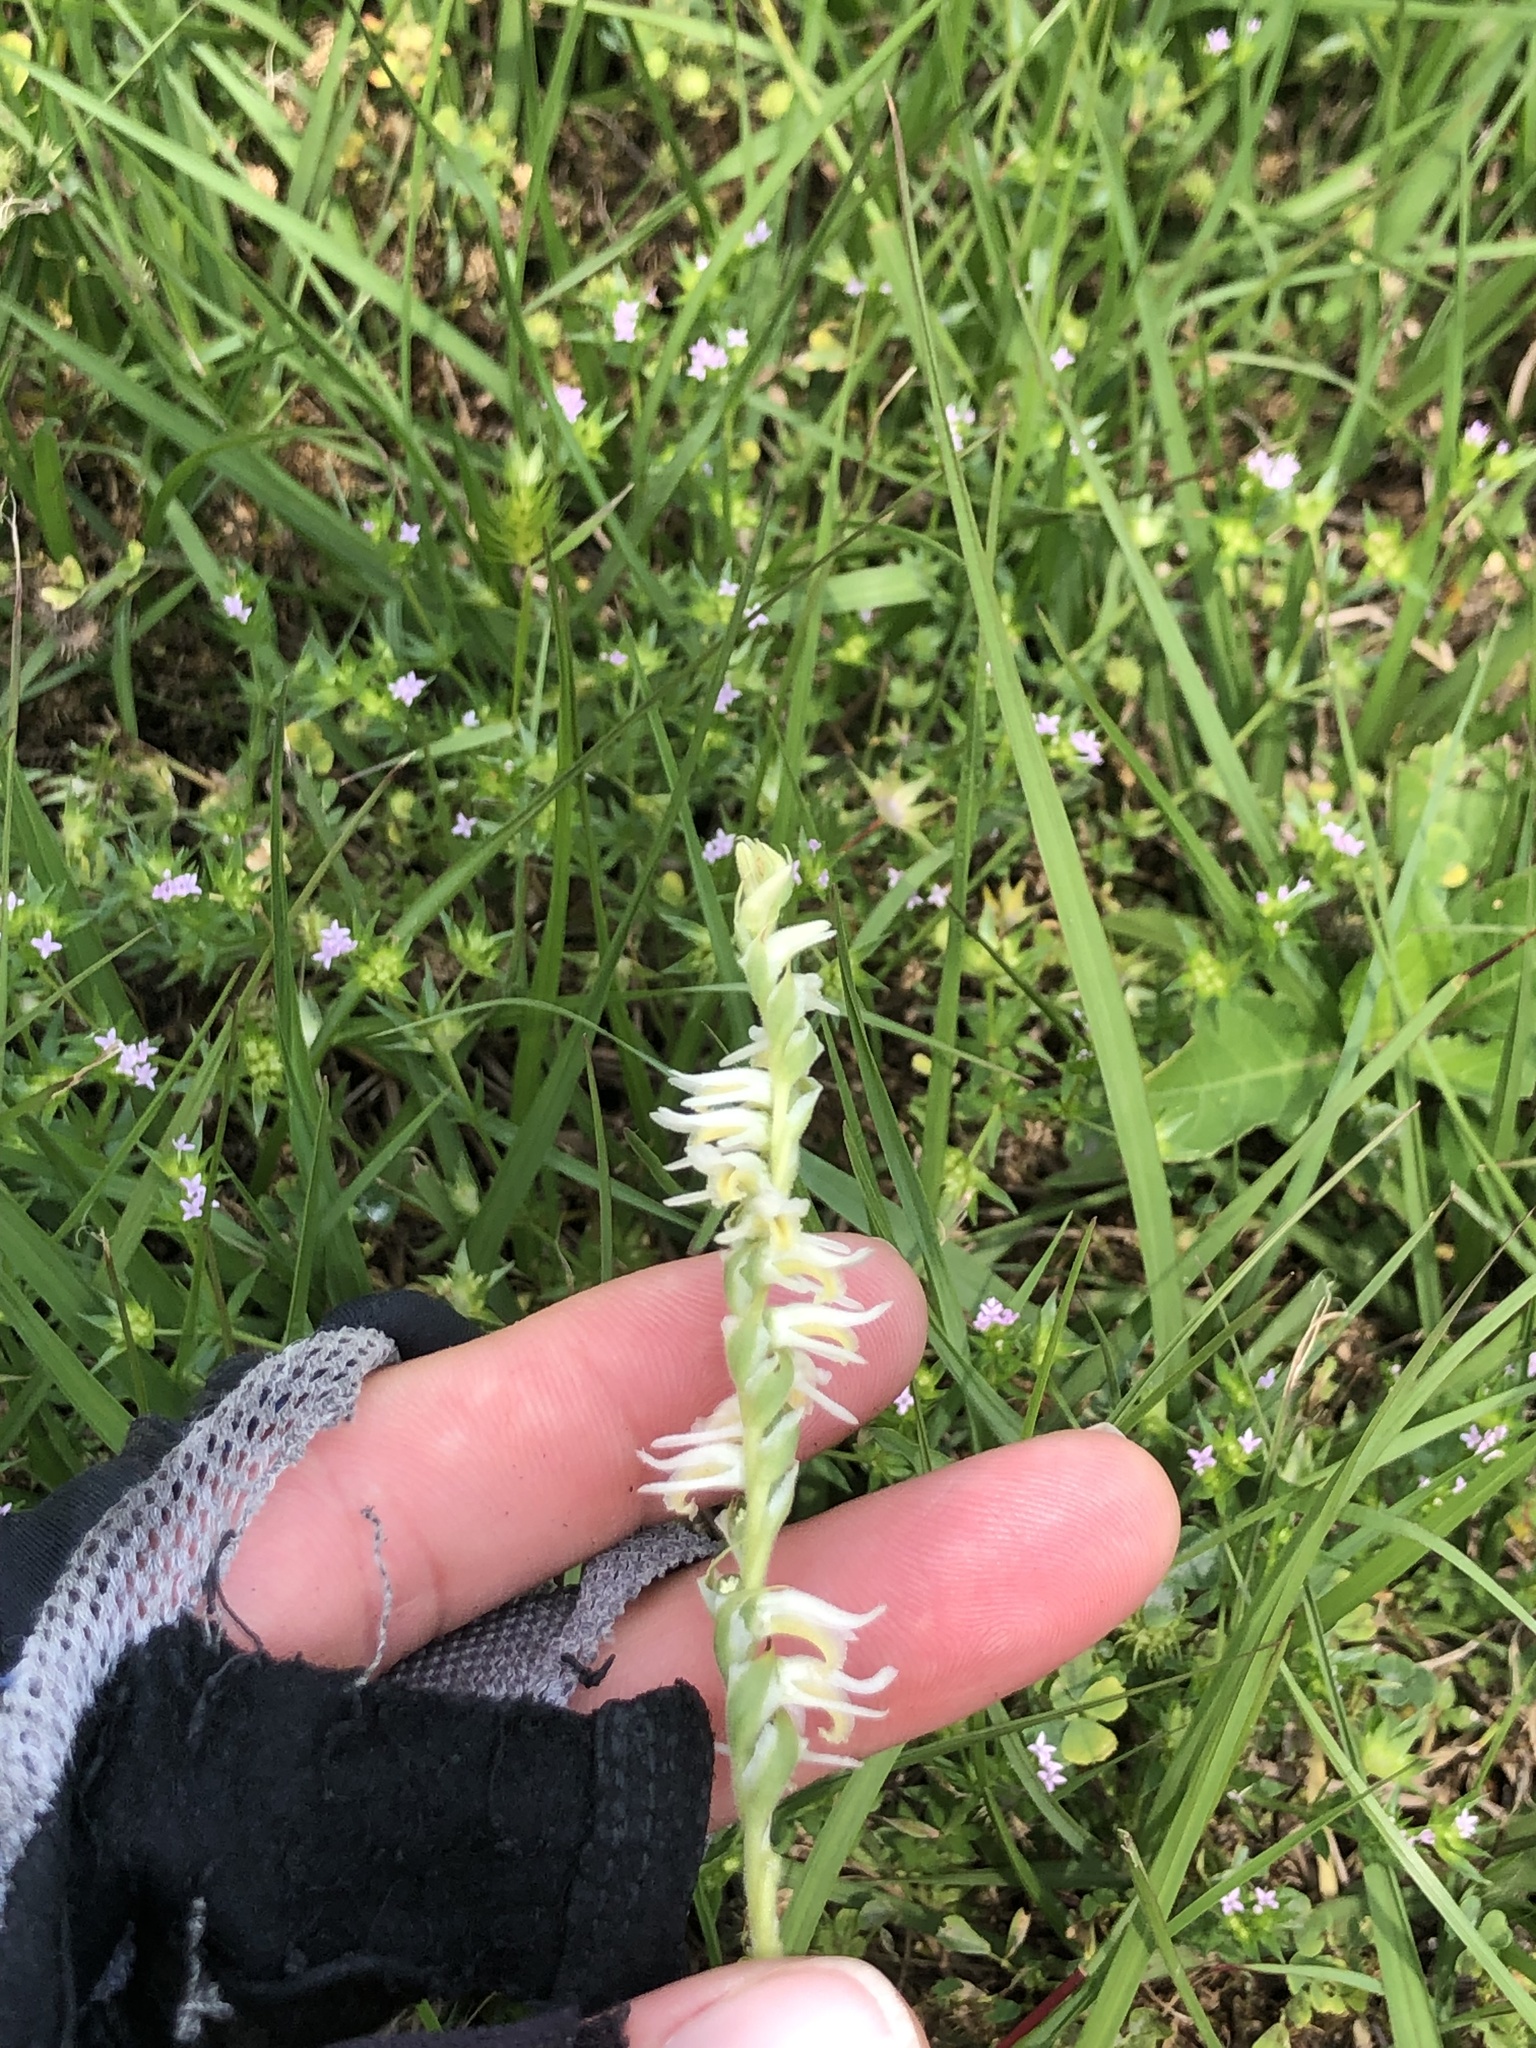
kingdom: Plantae
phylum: Tracheophyta
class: Liliopsida
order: Asparagales
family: Orchidaceae
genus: Spiranthes
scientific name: Spiranthes vernalis
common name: Spring ladies'-tresses
